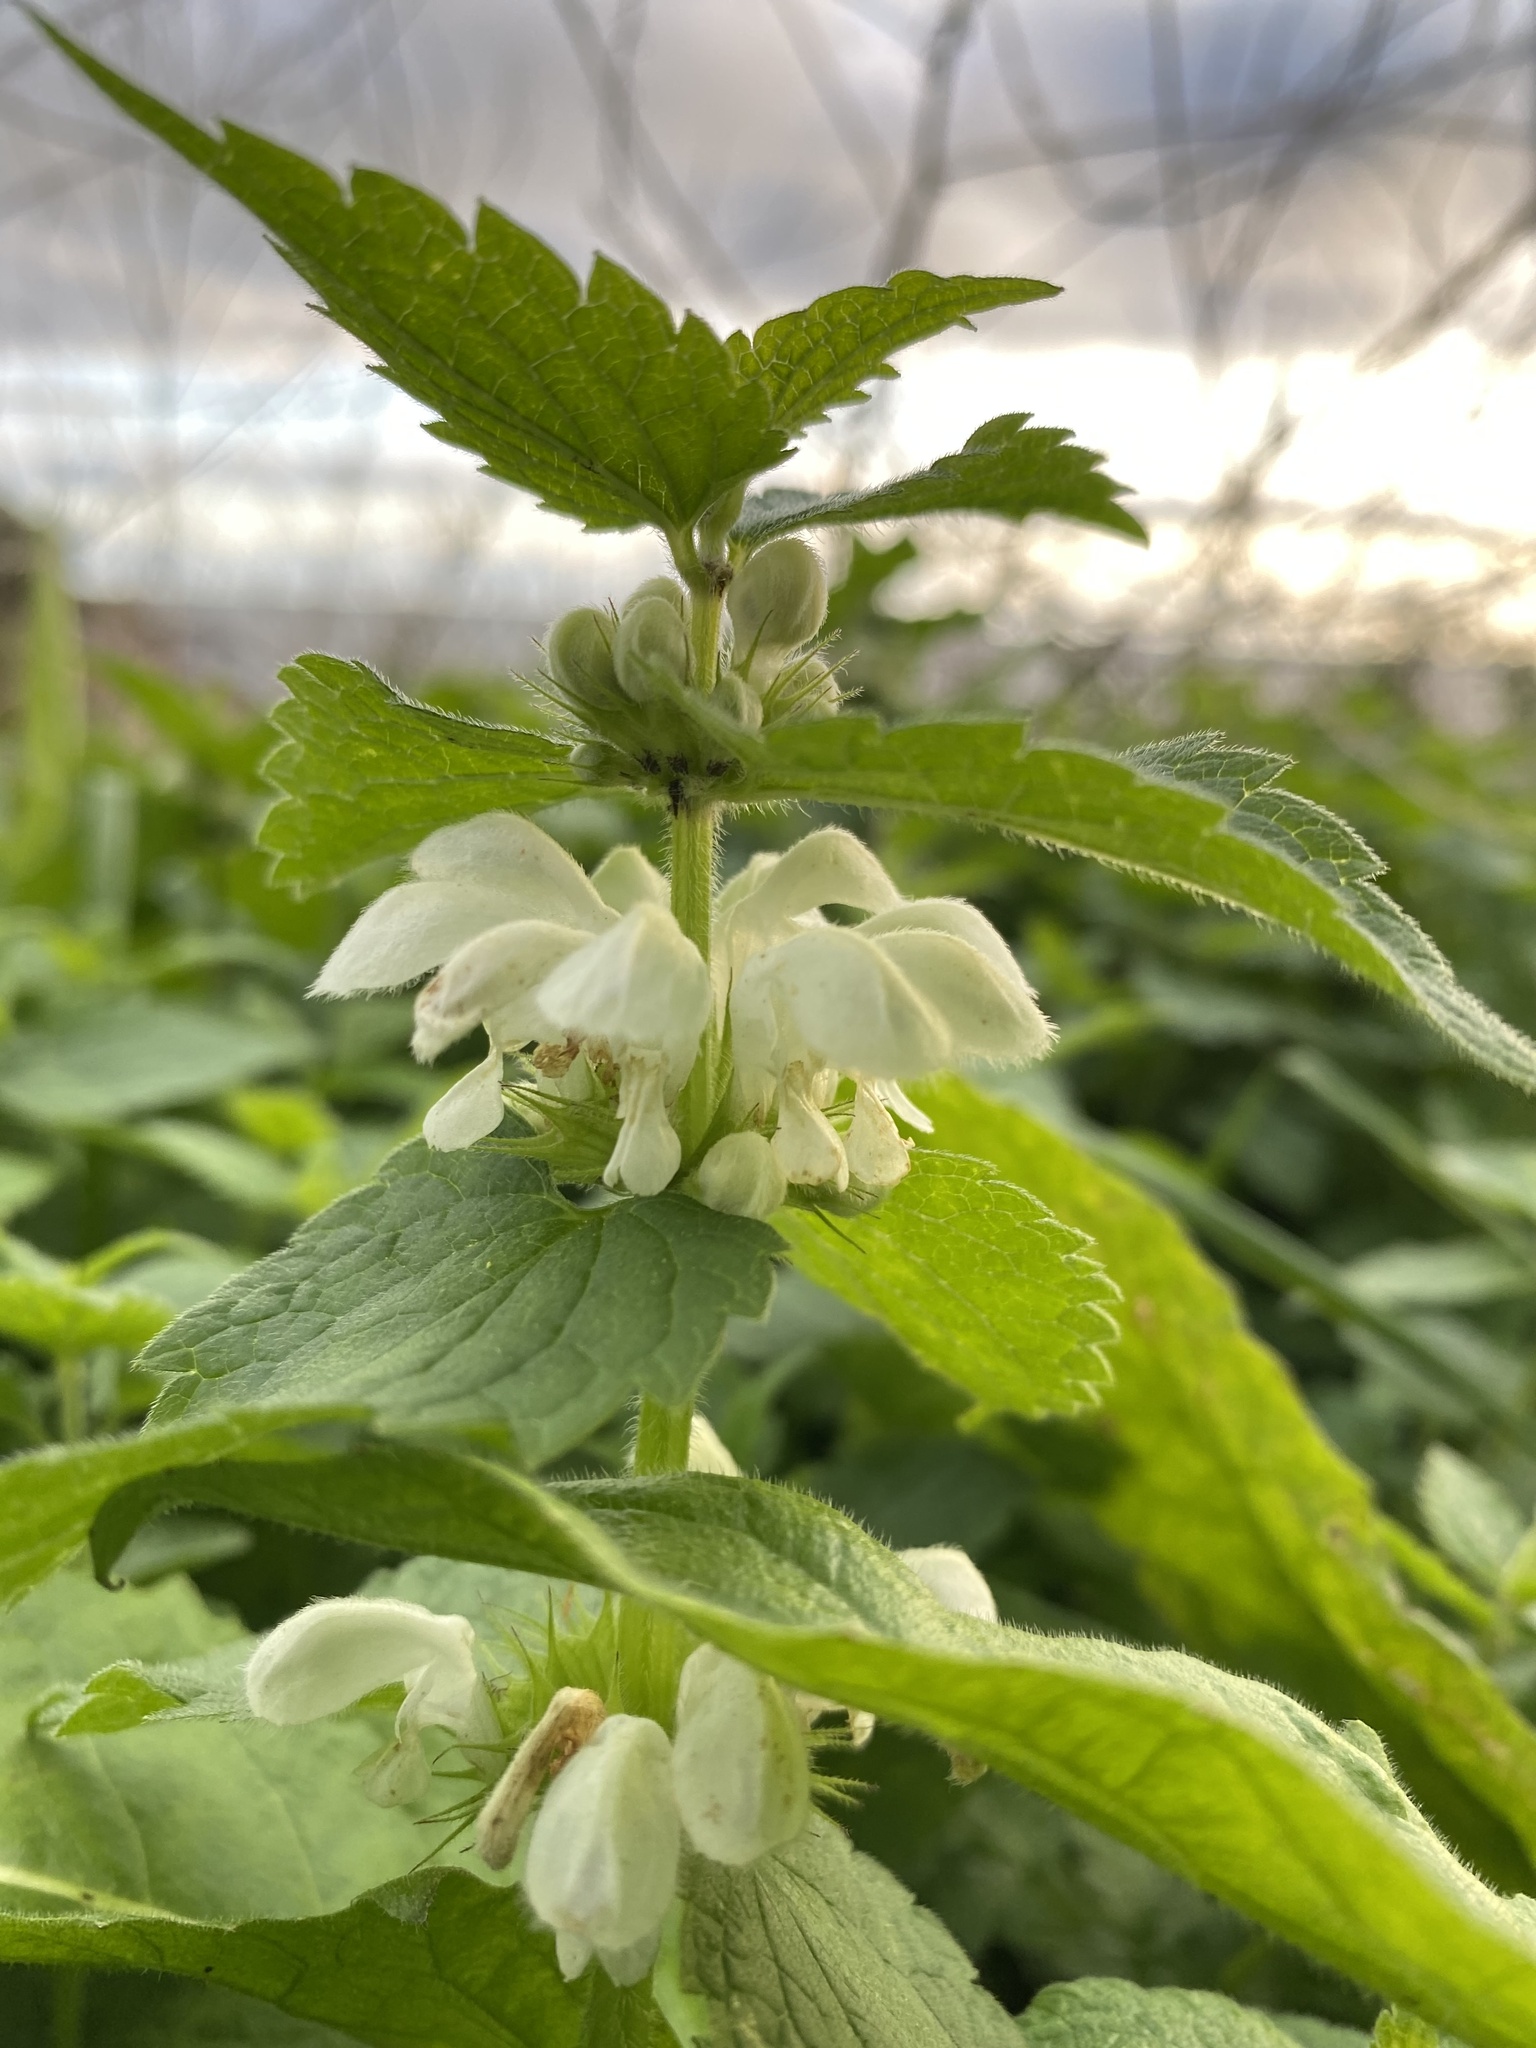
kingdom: Plantae
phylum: Tracheophyta
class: Magnoliopsida
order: Lamiales
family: Lamiaceae
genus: Lamium
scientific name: Lamium album
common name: White dead-nettle
